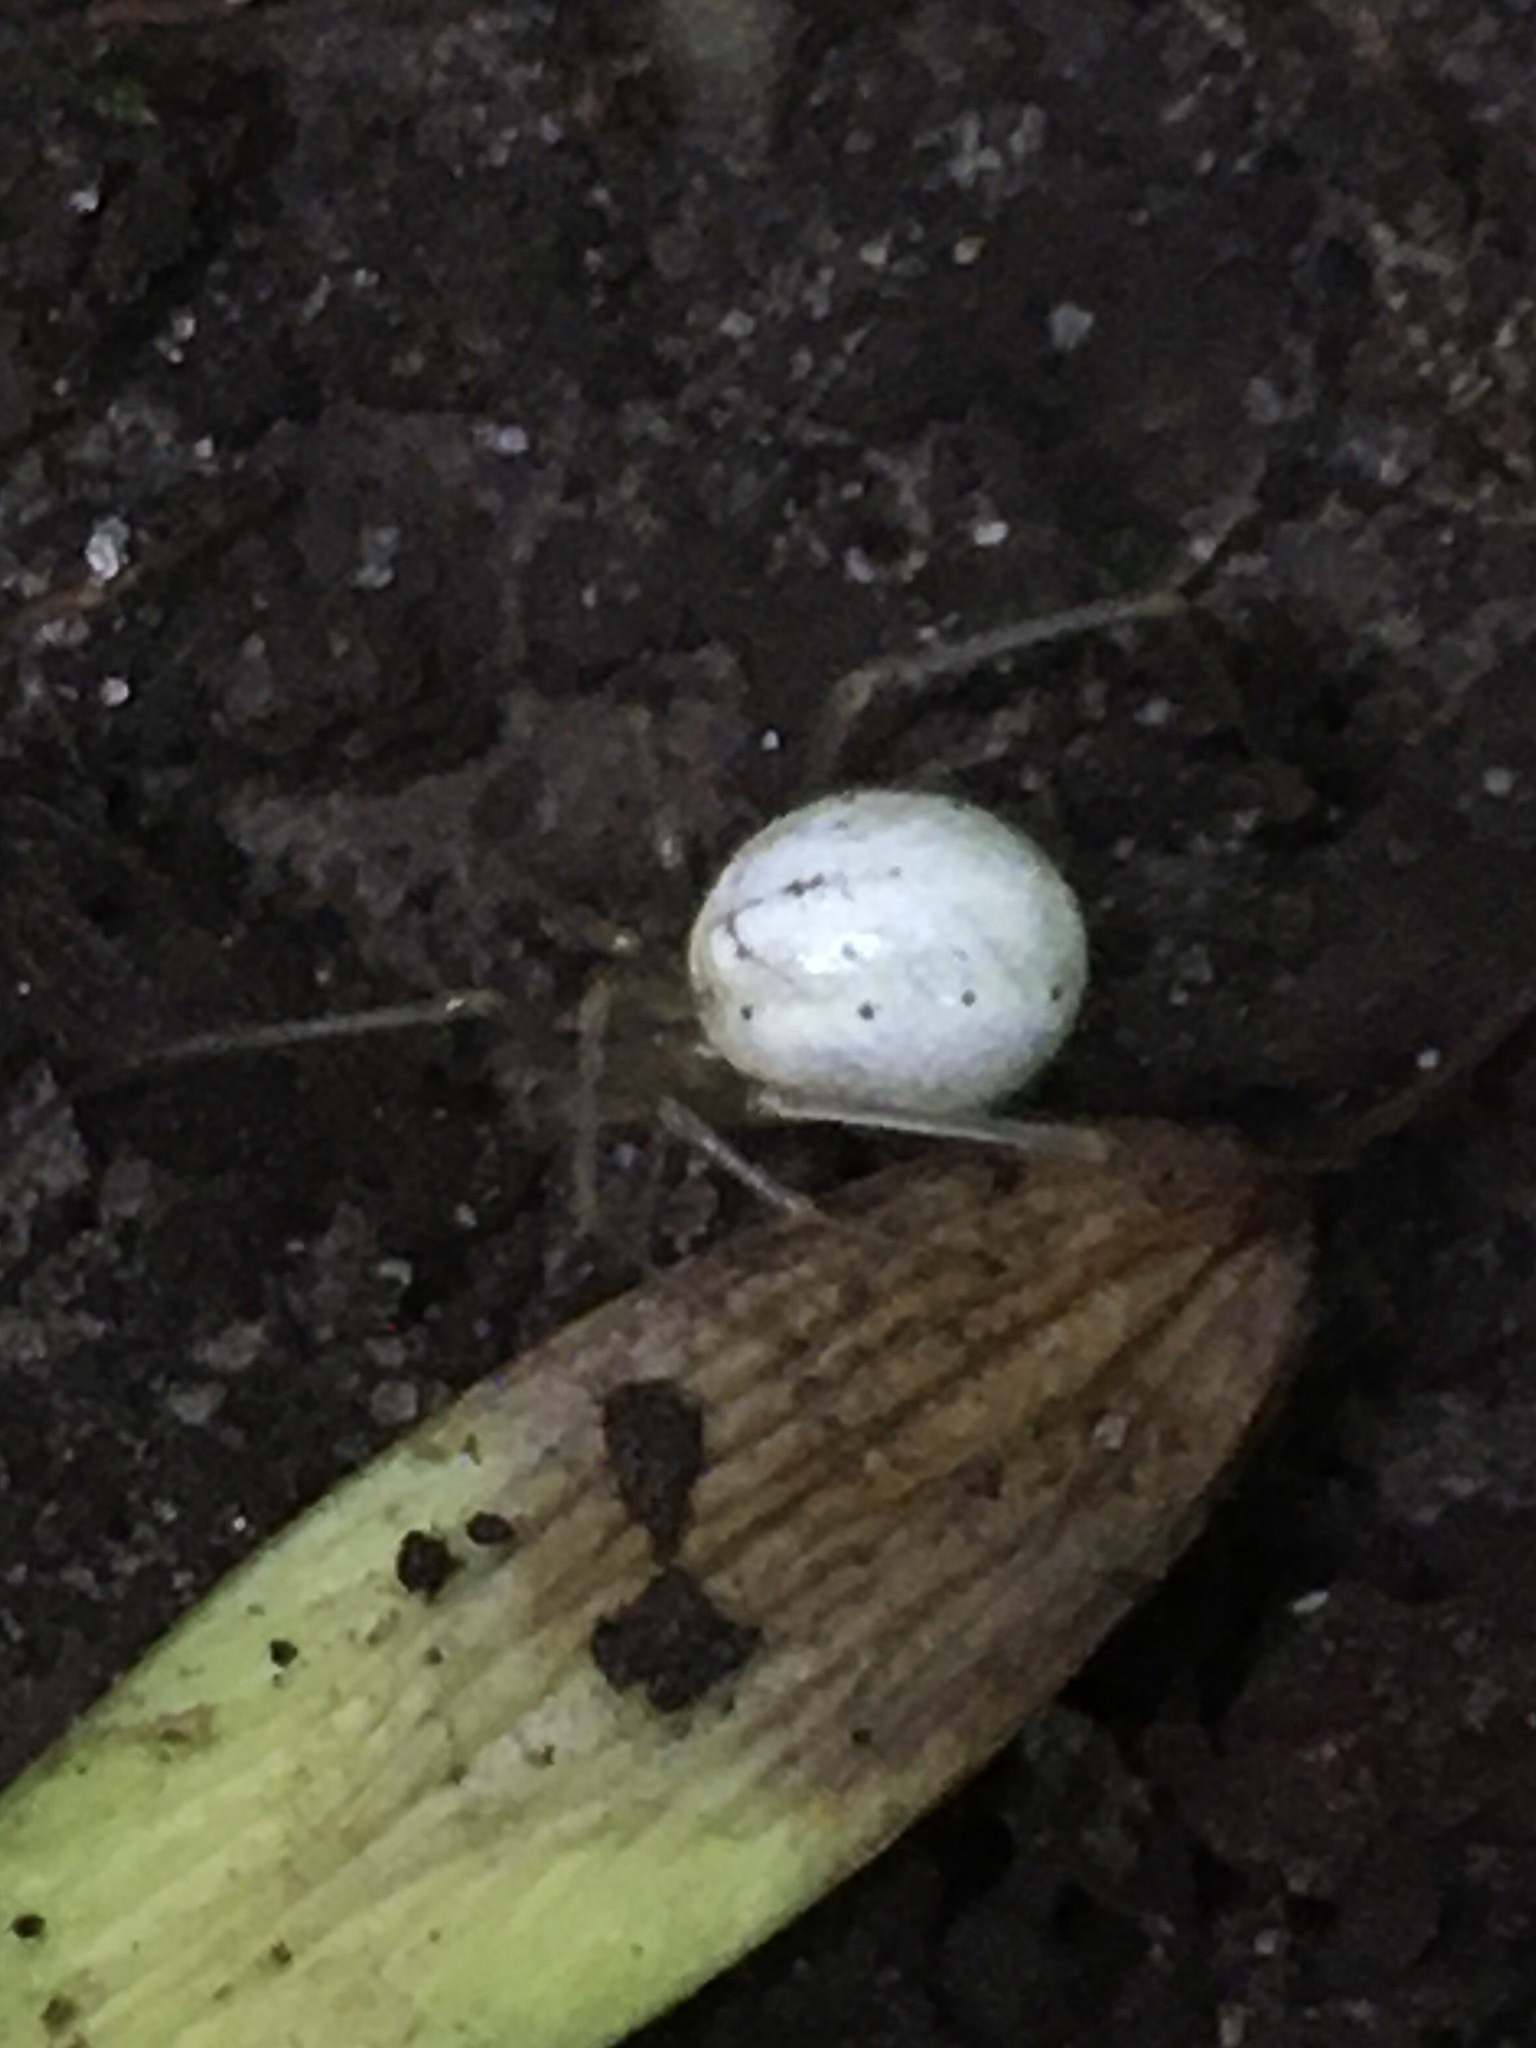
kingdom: Animalia
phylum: Arthropoda
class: Arachnida
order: Araneae
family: Theridiidae
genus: Enoplognatha
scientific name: Enoplognatha ovata
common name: Common candy-striped spider
